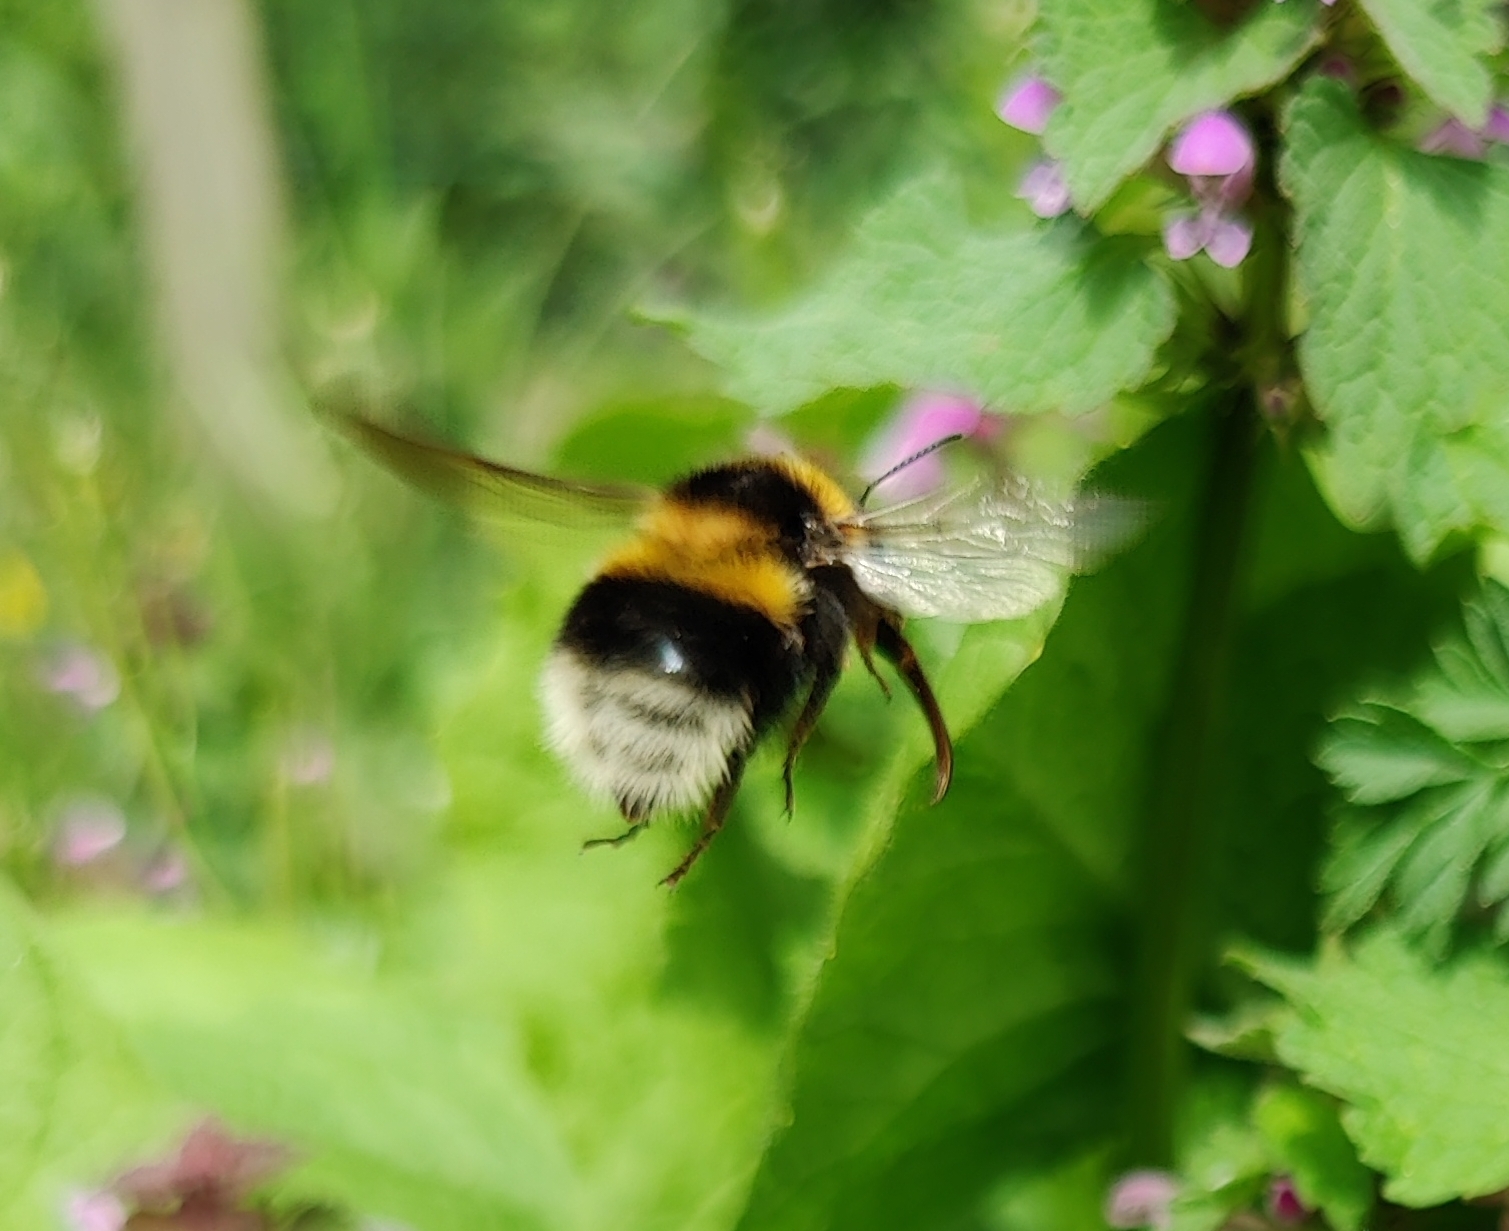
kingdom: Animalia
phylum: Arthropoda
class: Insecta
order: Hymenoptera
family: Apidae
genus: Bombus
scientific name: Bombus hortorum
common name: Garden bumblebee
